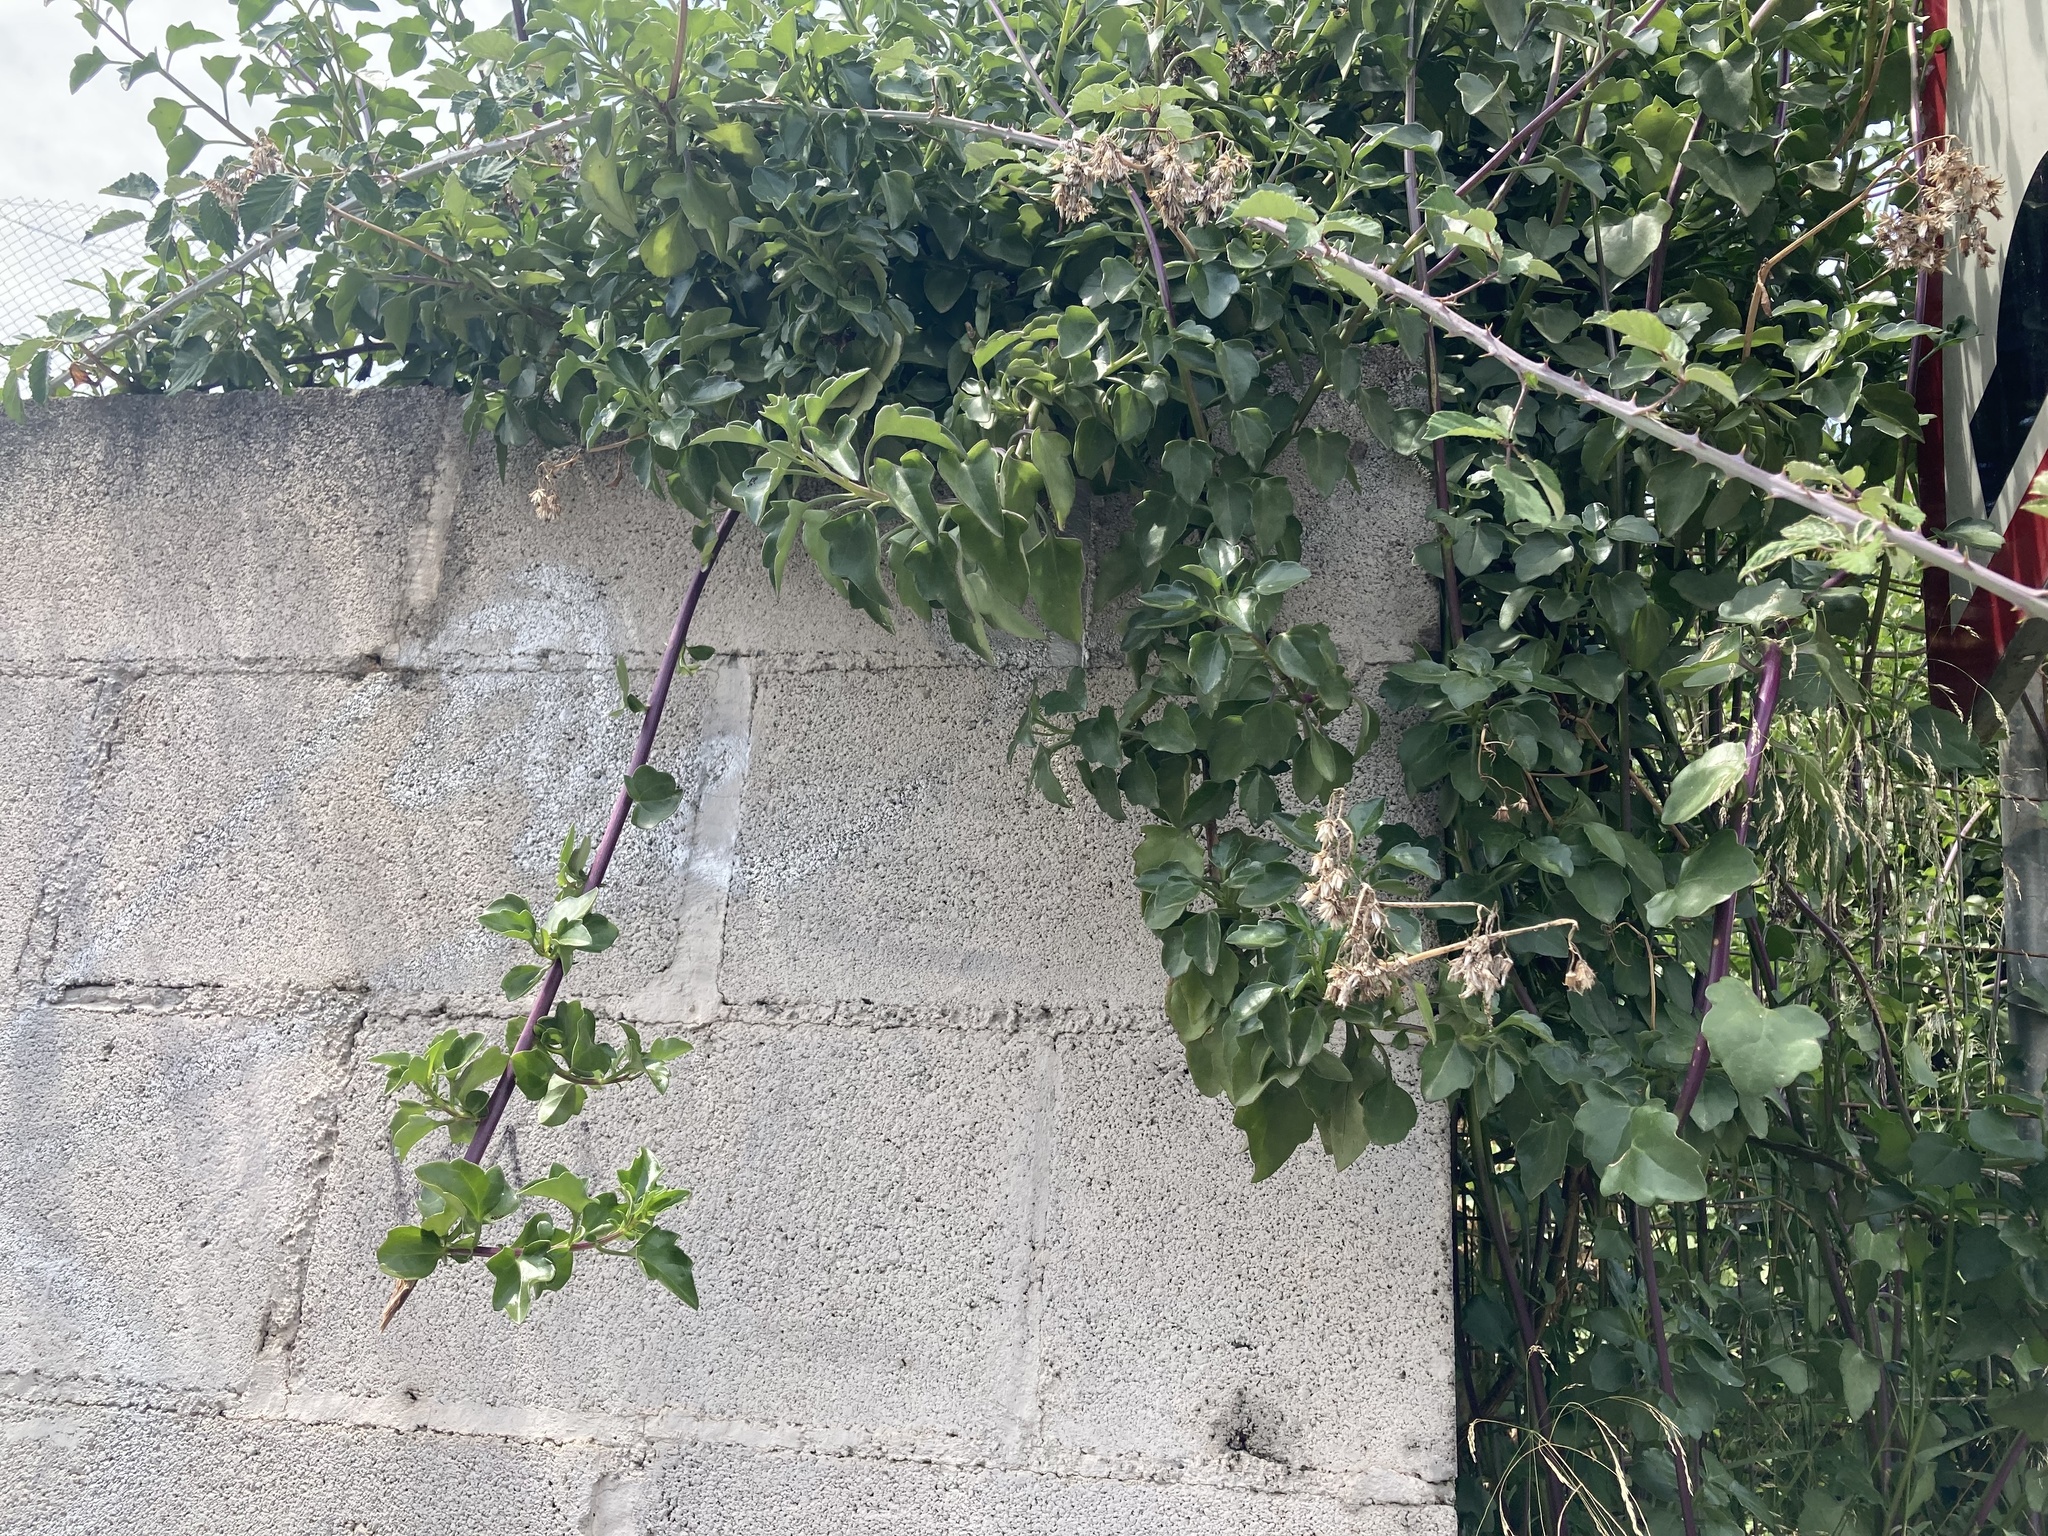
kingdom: Plantae
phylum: Tracheophyta
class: Magnoliopsida
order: Asterales
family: Asteraceae
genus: Senecio
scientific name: Senecio angulatus
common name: Climbing groundsel
